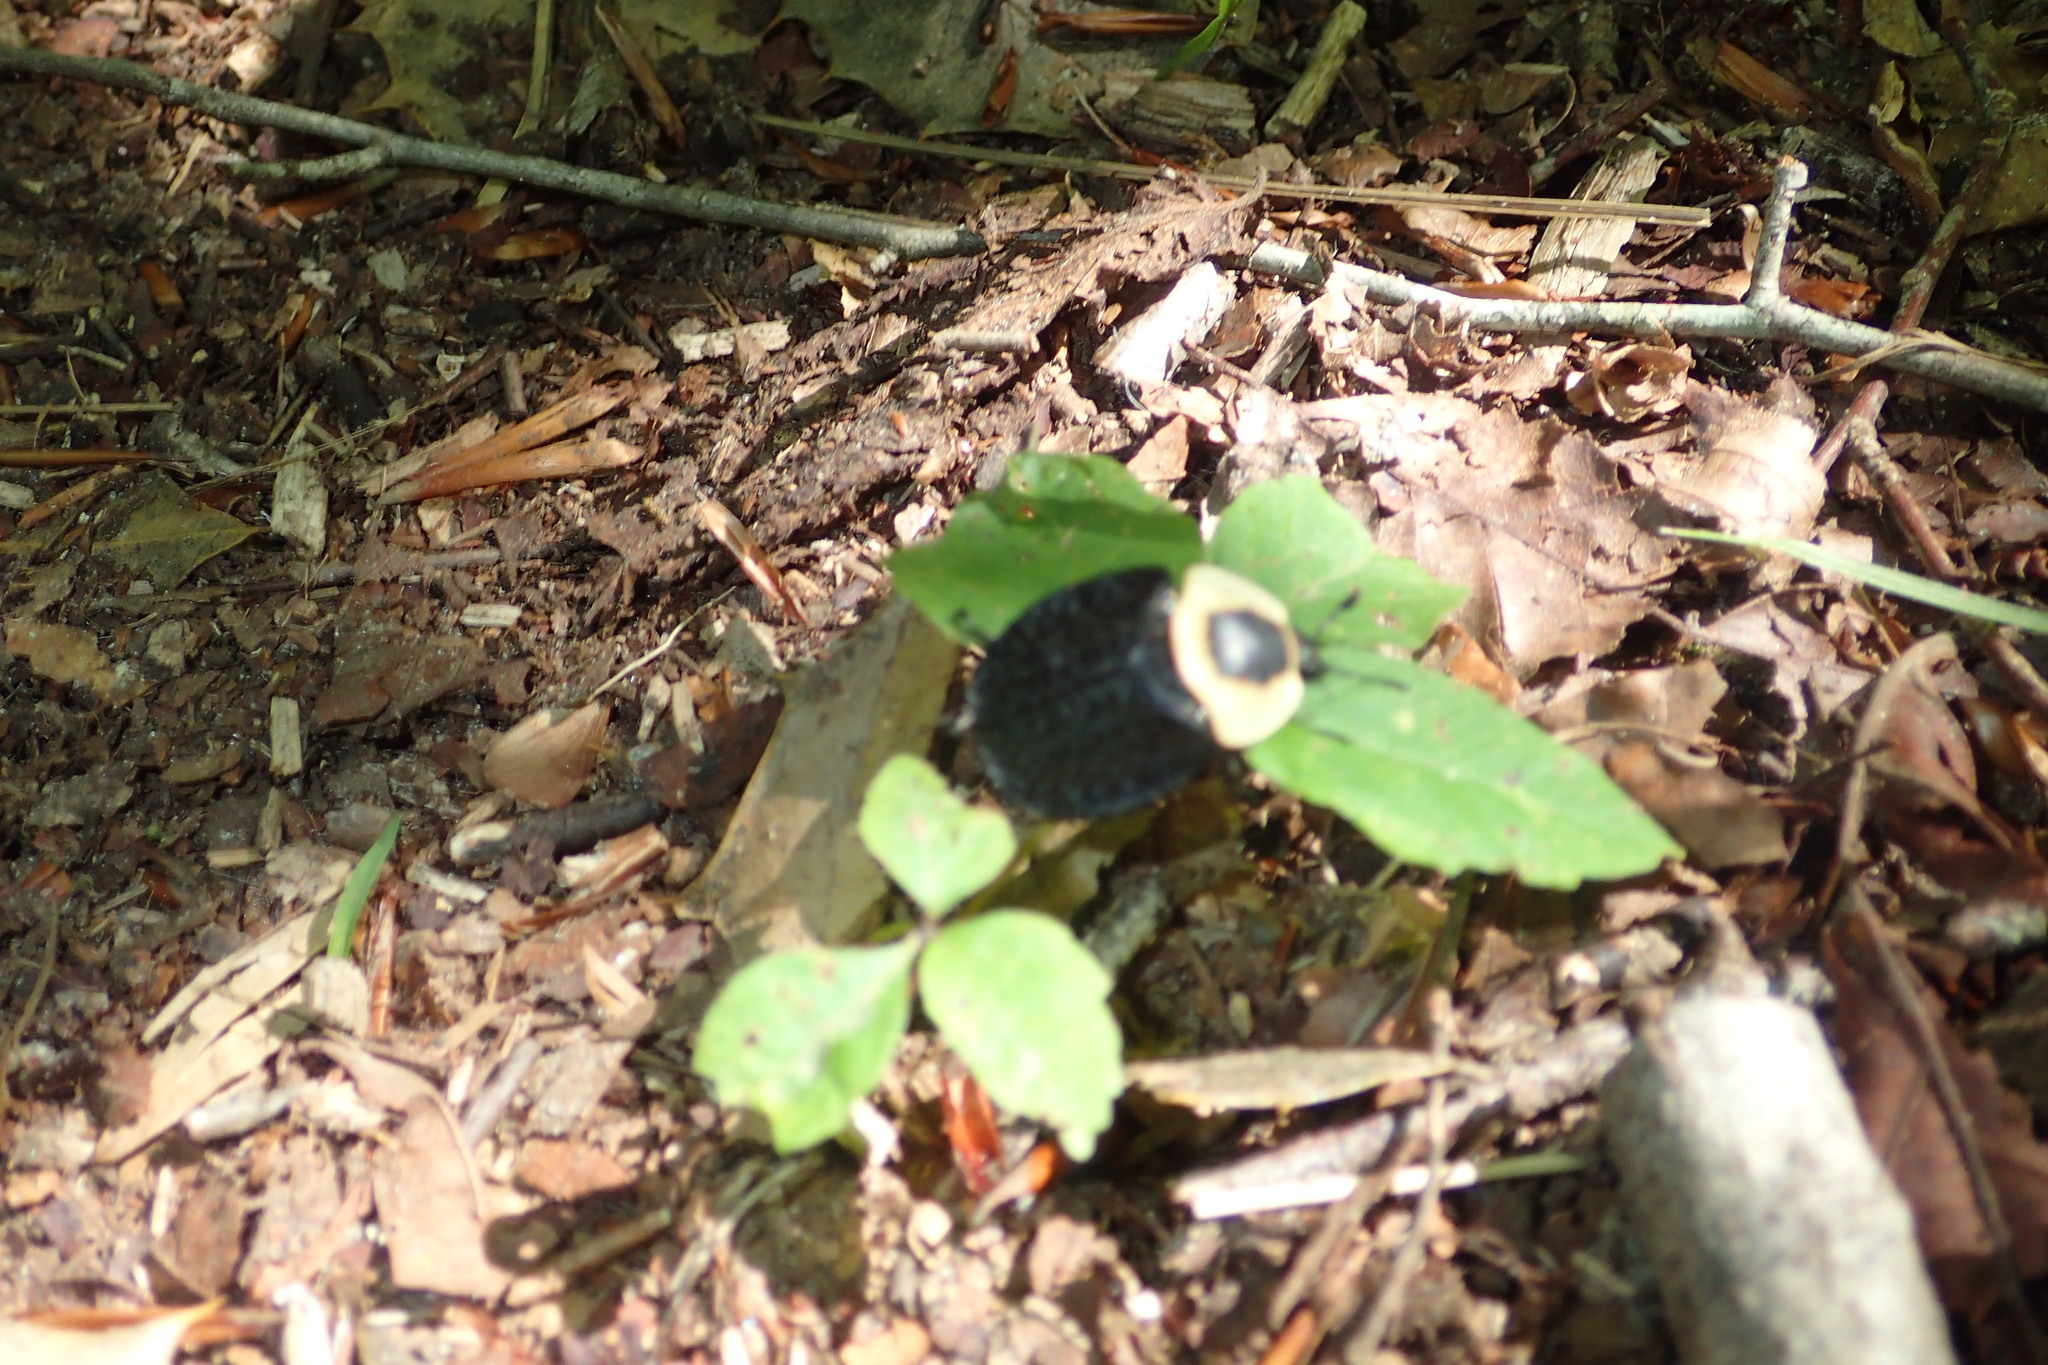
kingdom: Animalia
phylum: Arthropoda
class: Insecta
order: Coleoptera
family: Staphylinidae
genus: Necrophila
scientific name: Necrophila americana
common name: American carrion beetle
